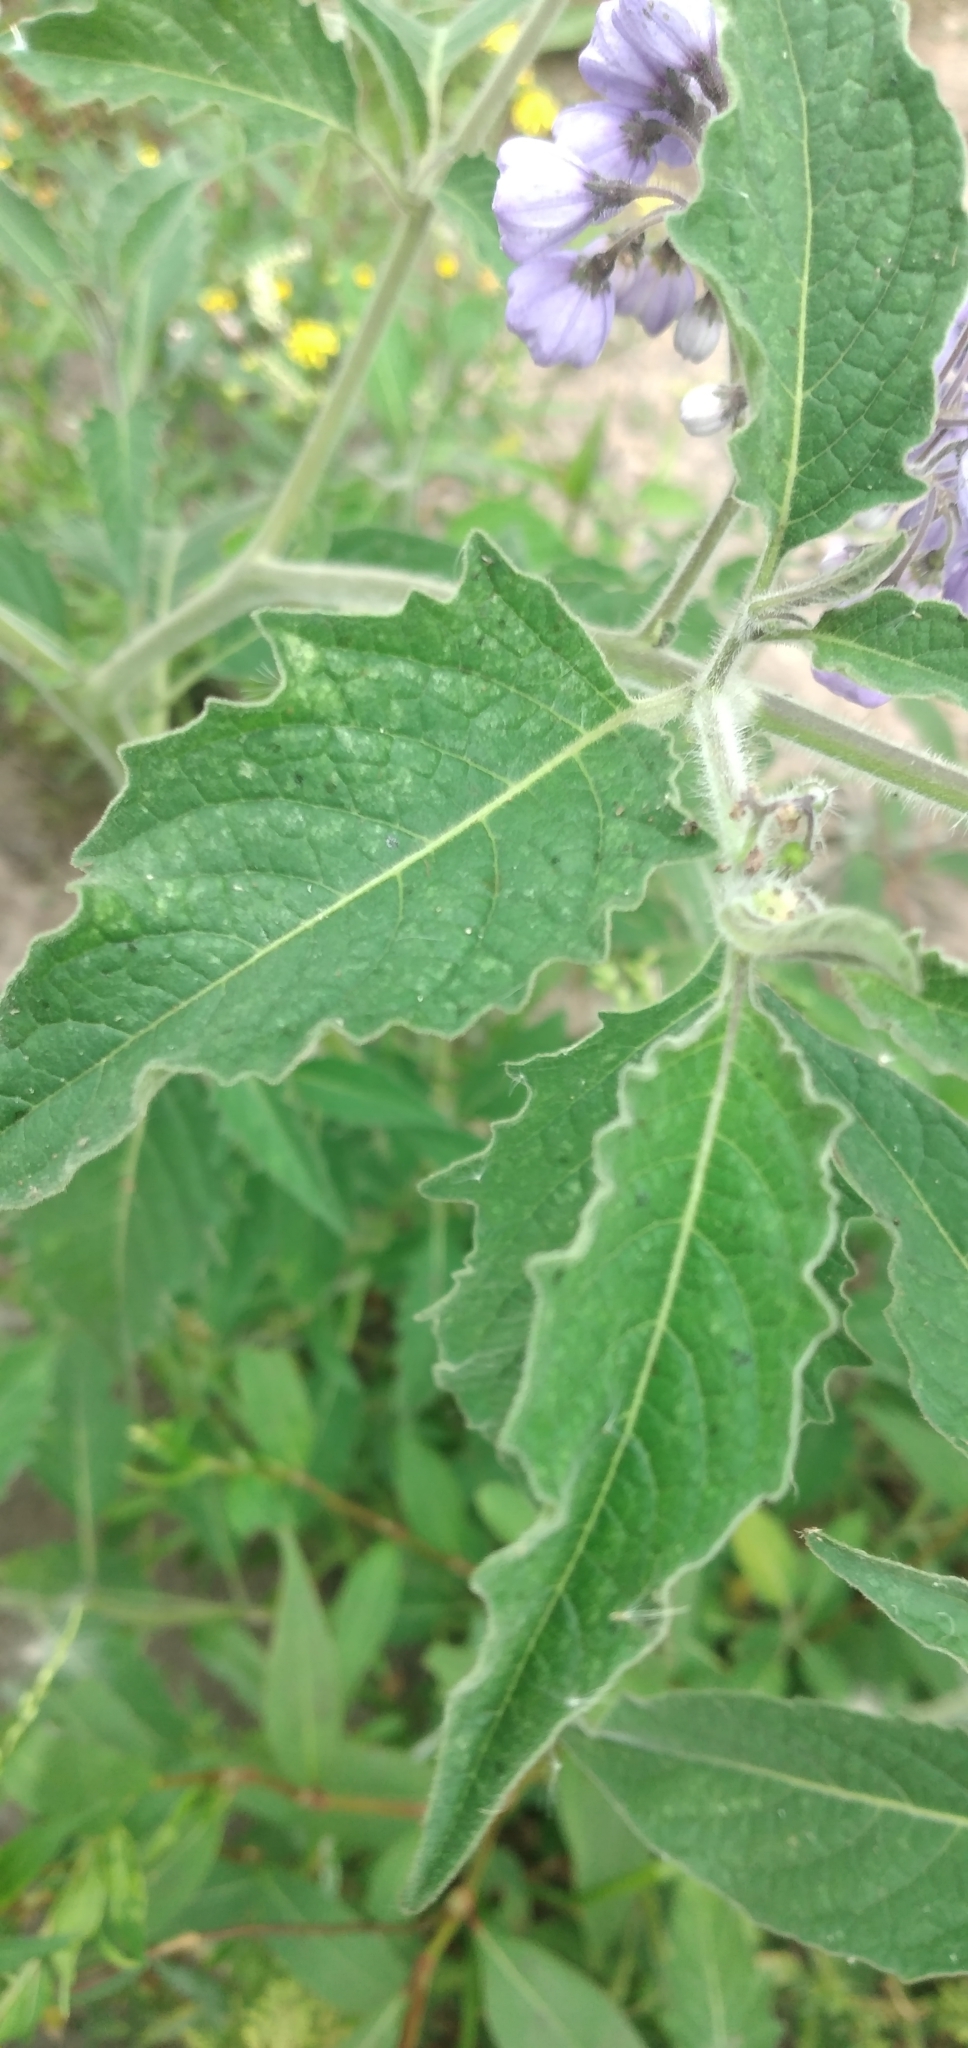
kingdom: Plantae
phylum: Tracheophyta
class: Magnoliopsida
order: Solanales
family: Solanaceae
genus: Solanum
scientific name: Solanum fiebrigii
